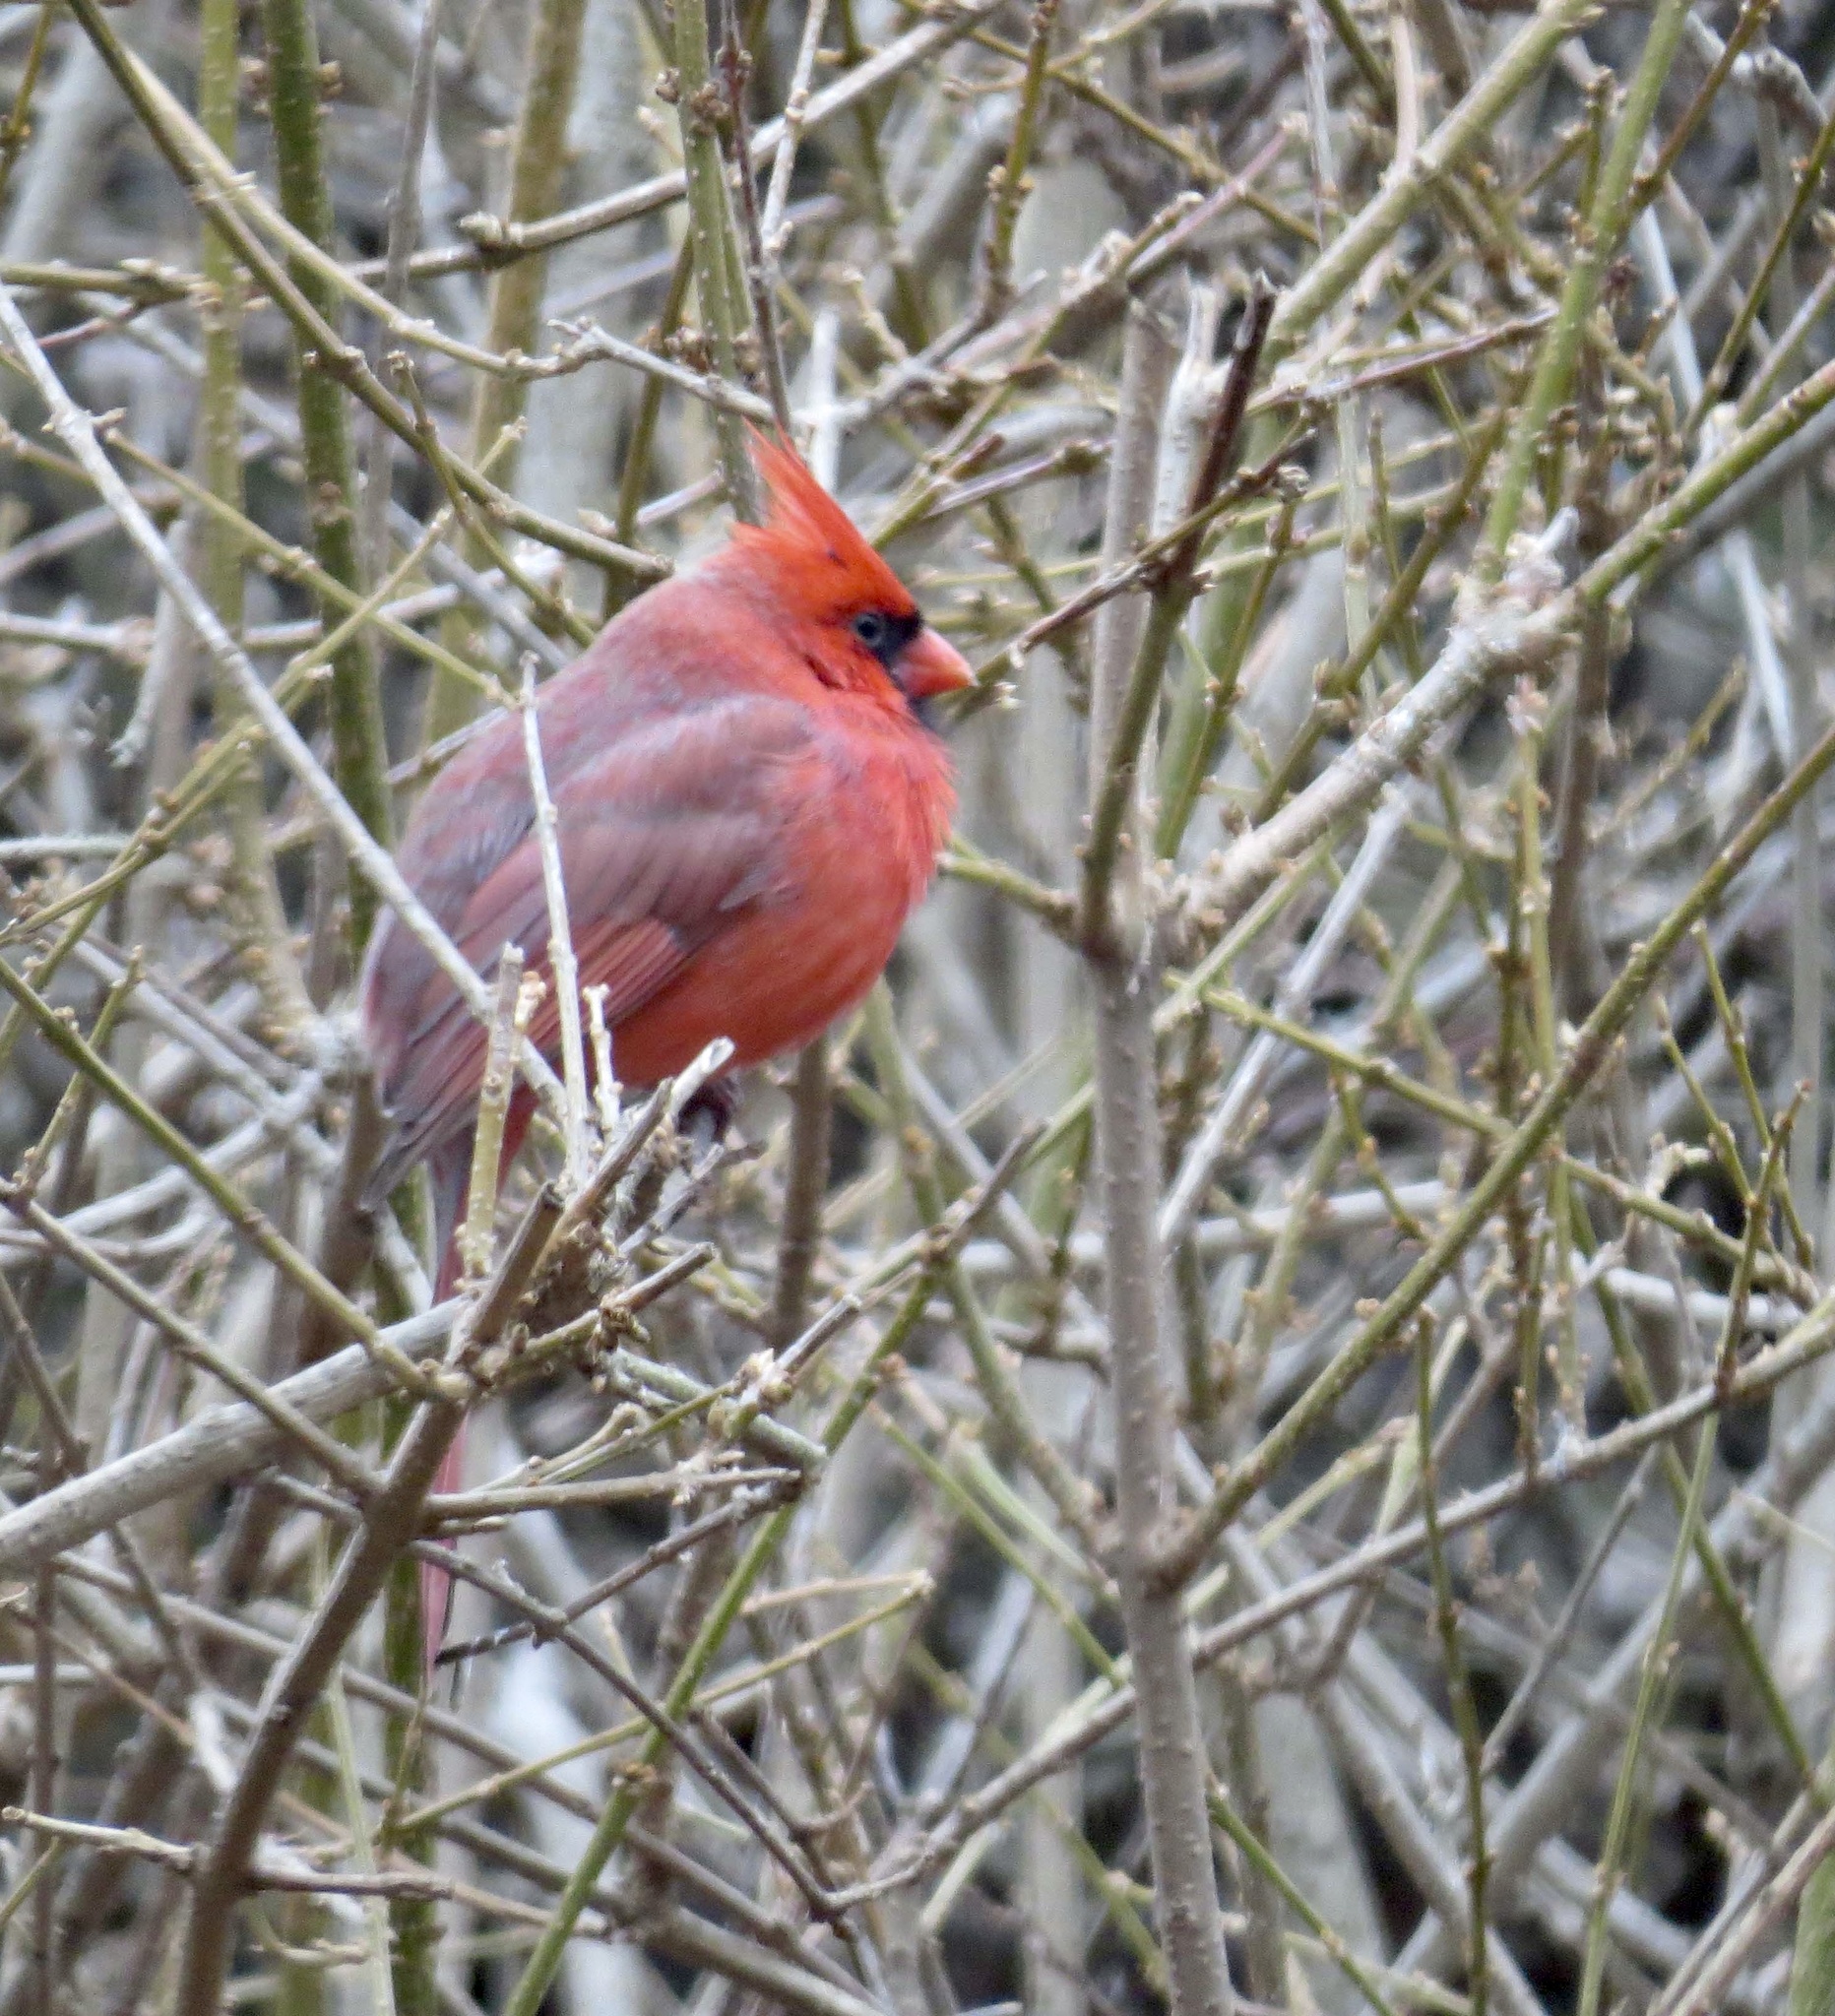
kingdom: Animalia
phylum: Chordata
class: Aves
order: Passeriformes
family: Cardinalidae
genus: Cardinalis
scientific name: Cardinalis cardinalis
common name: Northern cardinal
